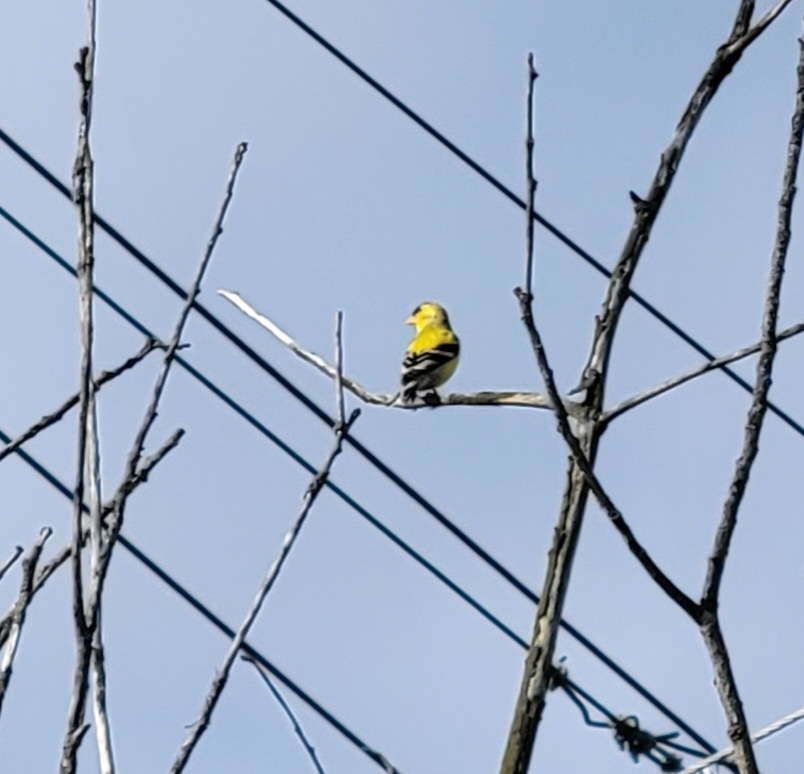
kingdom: Animalia
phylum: Chordata
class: Aves
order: Passeriformes
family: Fringillidae
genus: Spinus
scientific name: Spinus tristis
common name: American goldfinch
